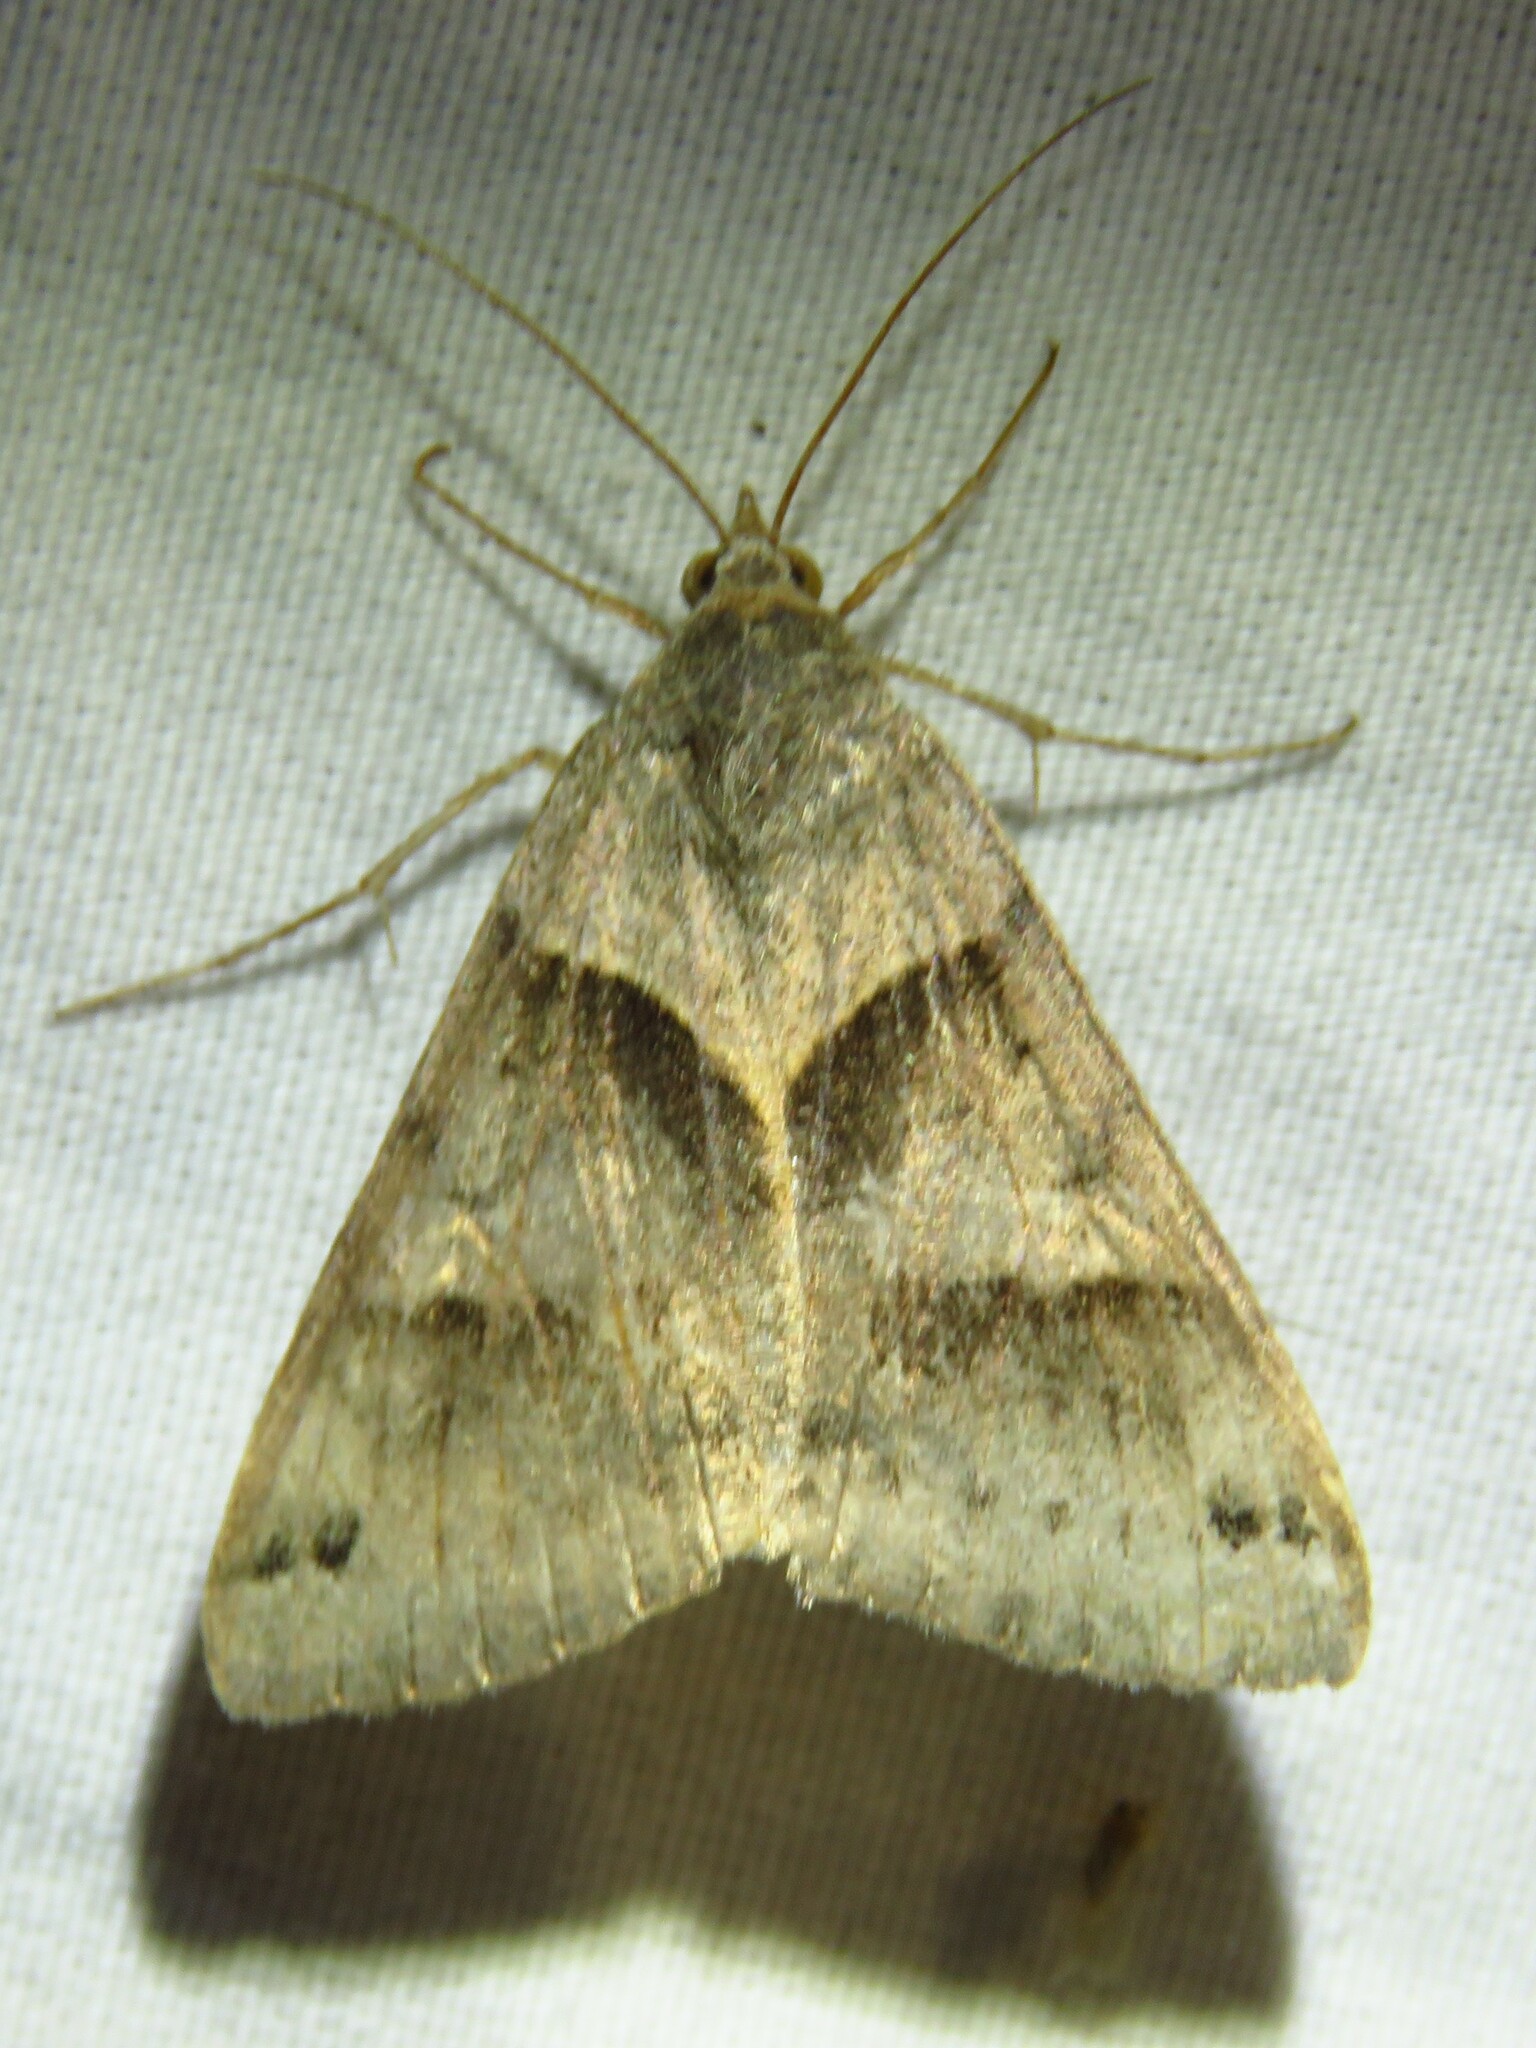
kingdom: Animalia
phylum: Arthropoda
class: Insecta
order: Lepidoptera
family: Erebidae
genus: Caenurgina
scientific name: Caenurgina erechtea
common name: Forage looper moth
